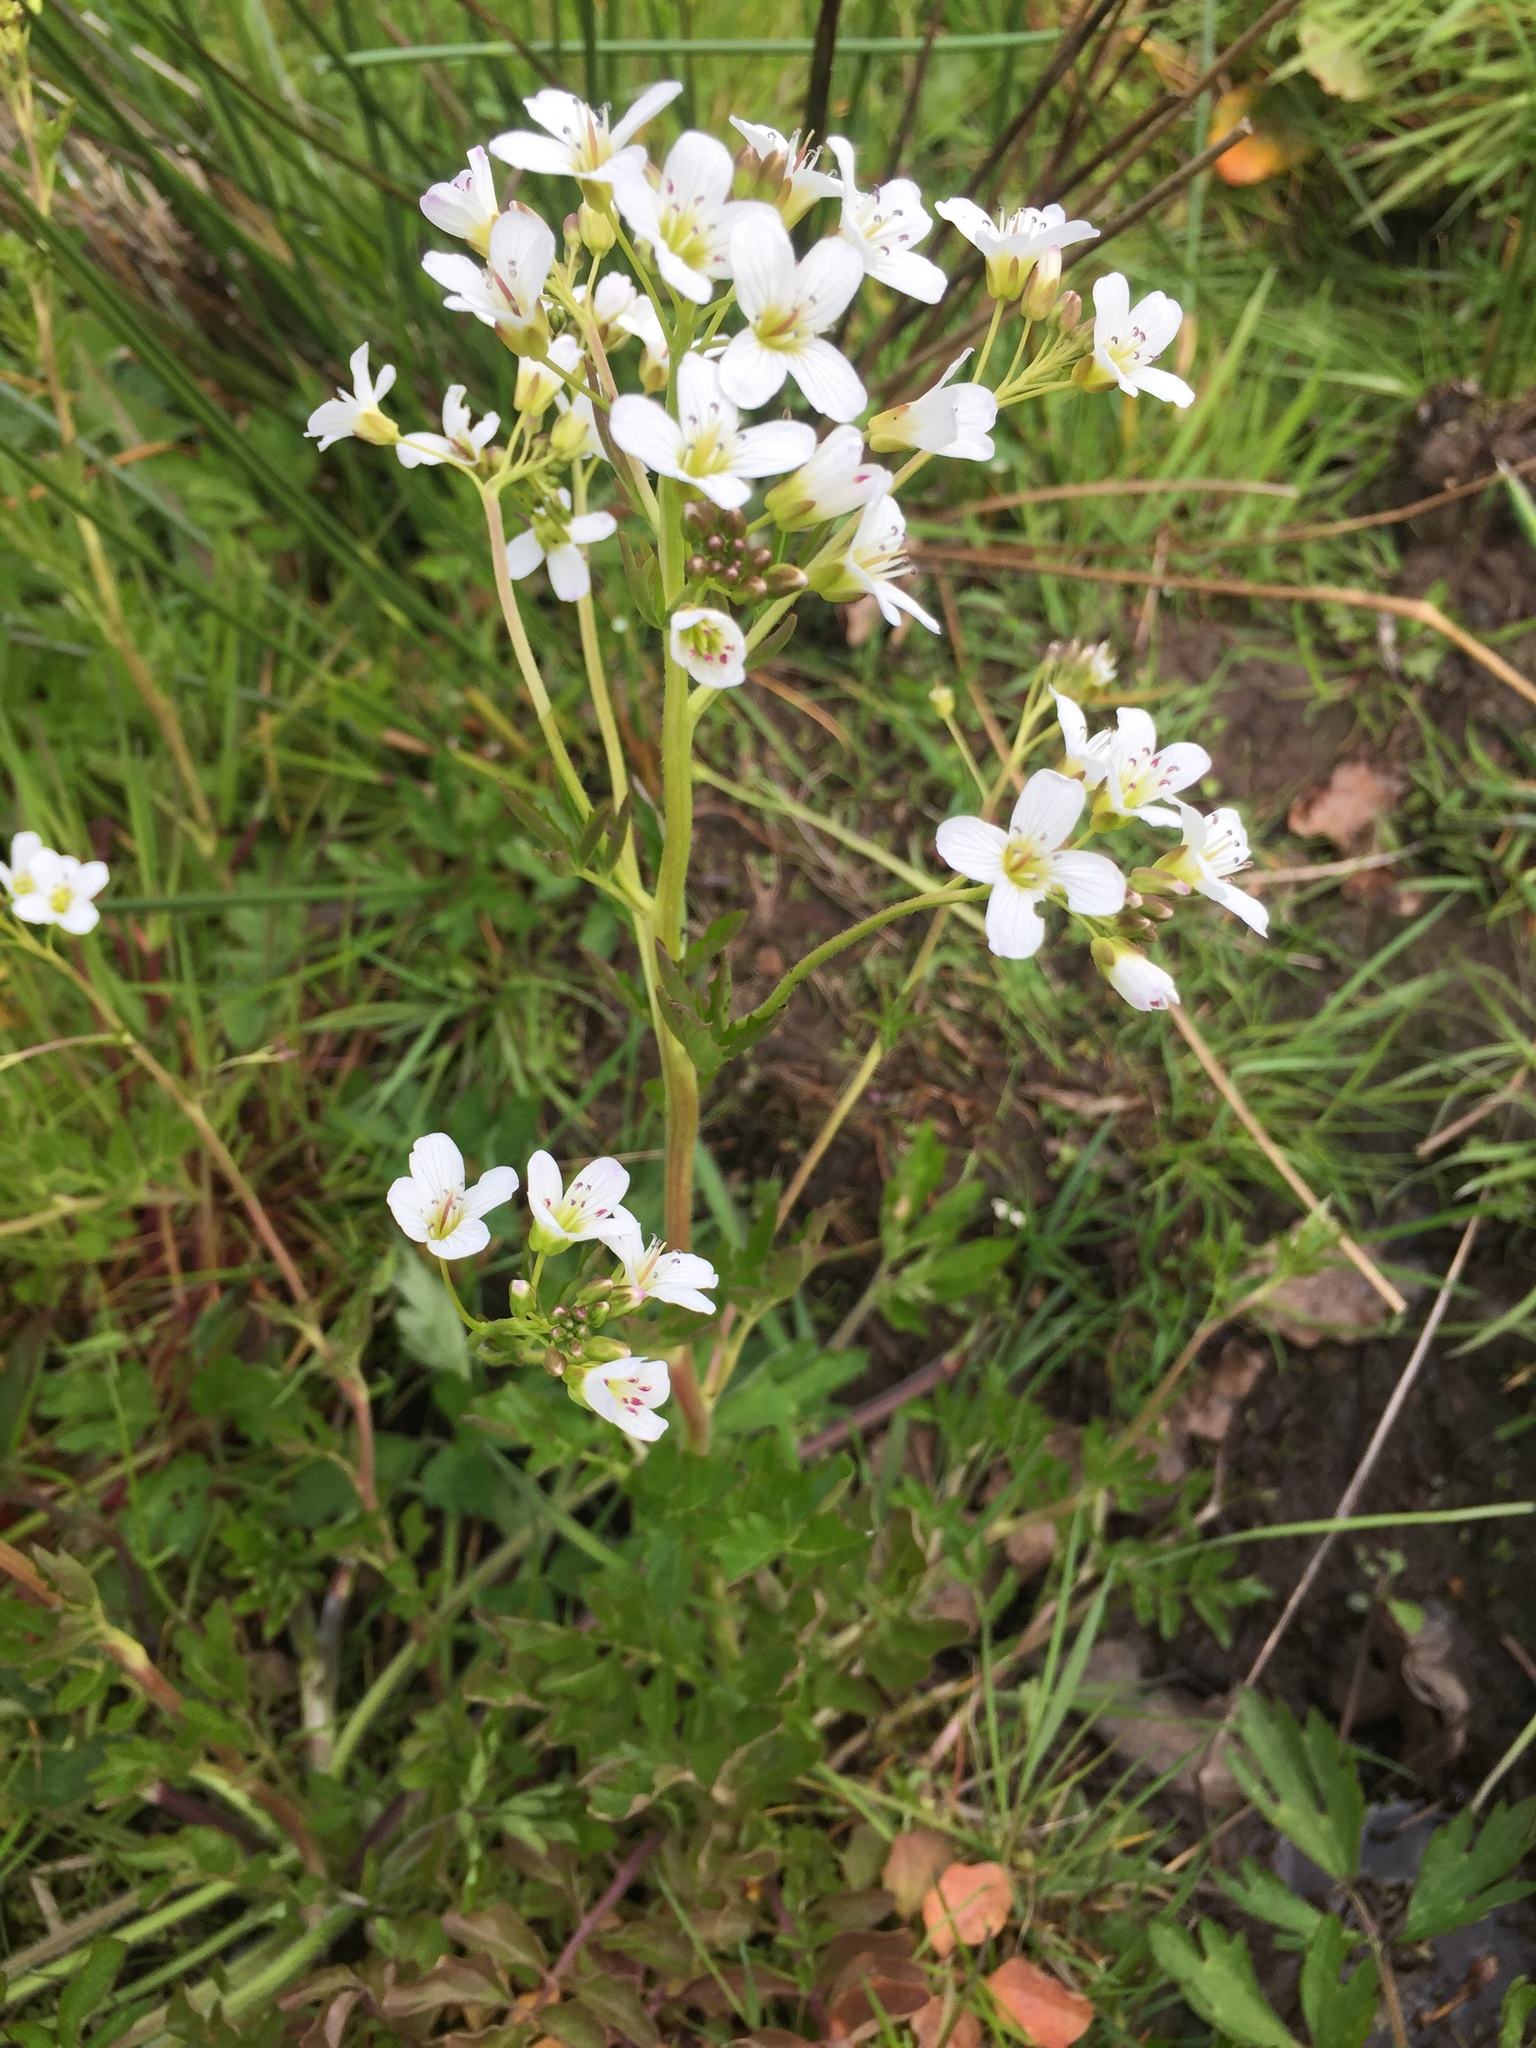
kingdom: Plantae
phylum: Tracheophyta
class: Magnoliopsida
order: Saxifragales
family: Saxifragaceae
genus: Saxifraga
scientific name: Saxifraga granulata
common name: Meadow saxifrage
